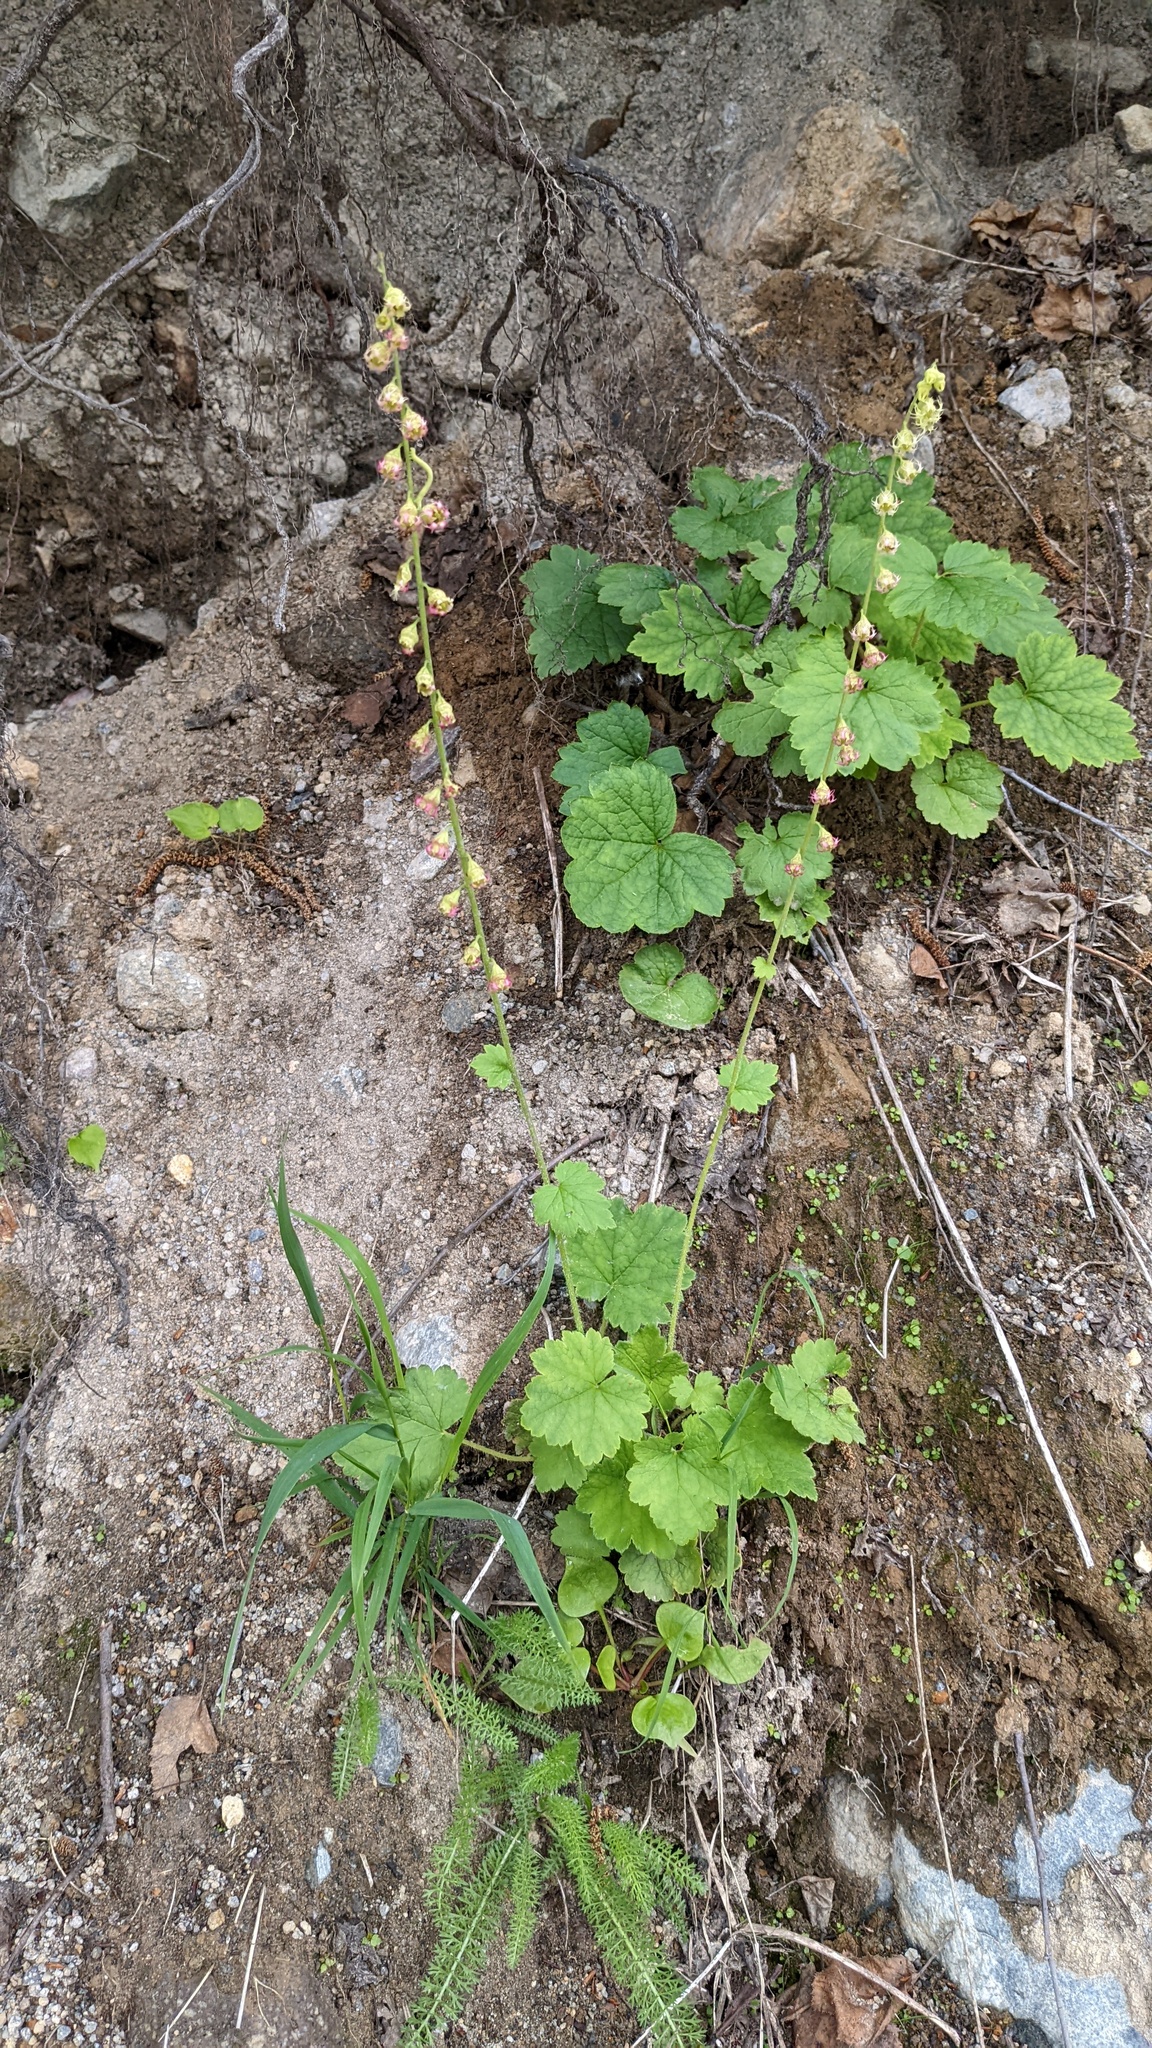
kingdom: Plantae
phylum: Tracheophyta
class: Magnoliopsida
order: Saxifragales
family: Saxifragaceae
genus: Tellima
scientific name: Tellima grandiflora
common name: Fringecups
